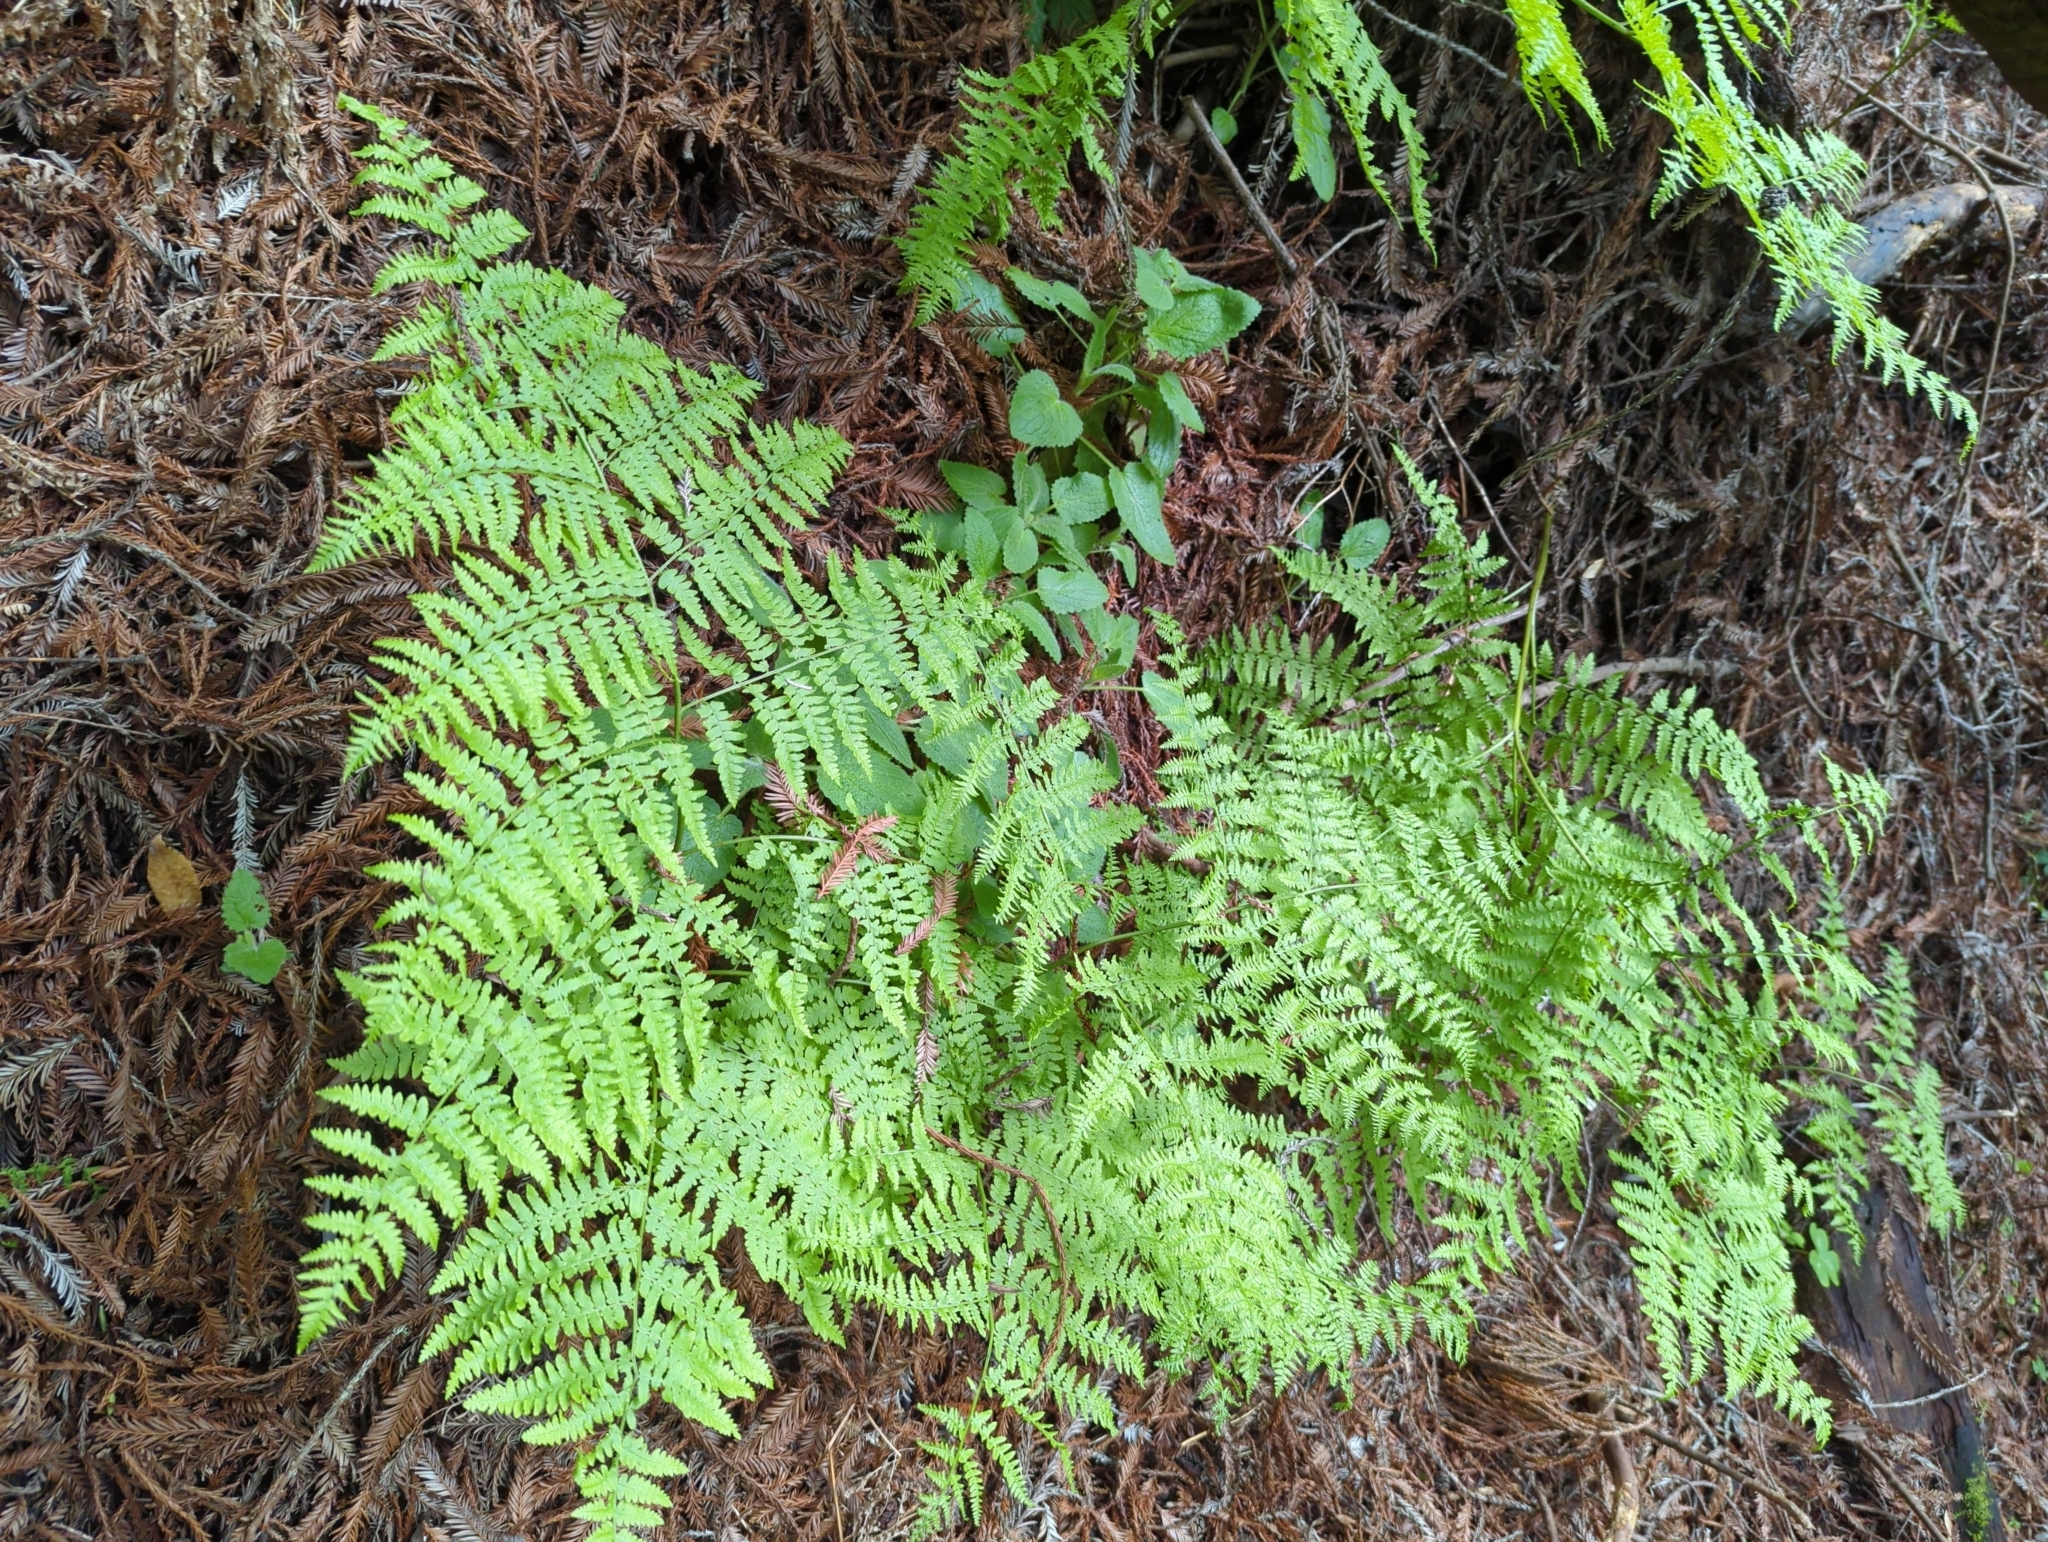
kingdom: Plantae
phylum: Tracheophyta
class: Polypodiopsida
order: Polypodiales
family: Dennstaedtiaceae
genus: Pteridium
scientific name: Pteridium aquilinum
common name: Bracken
